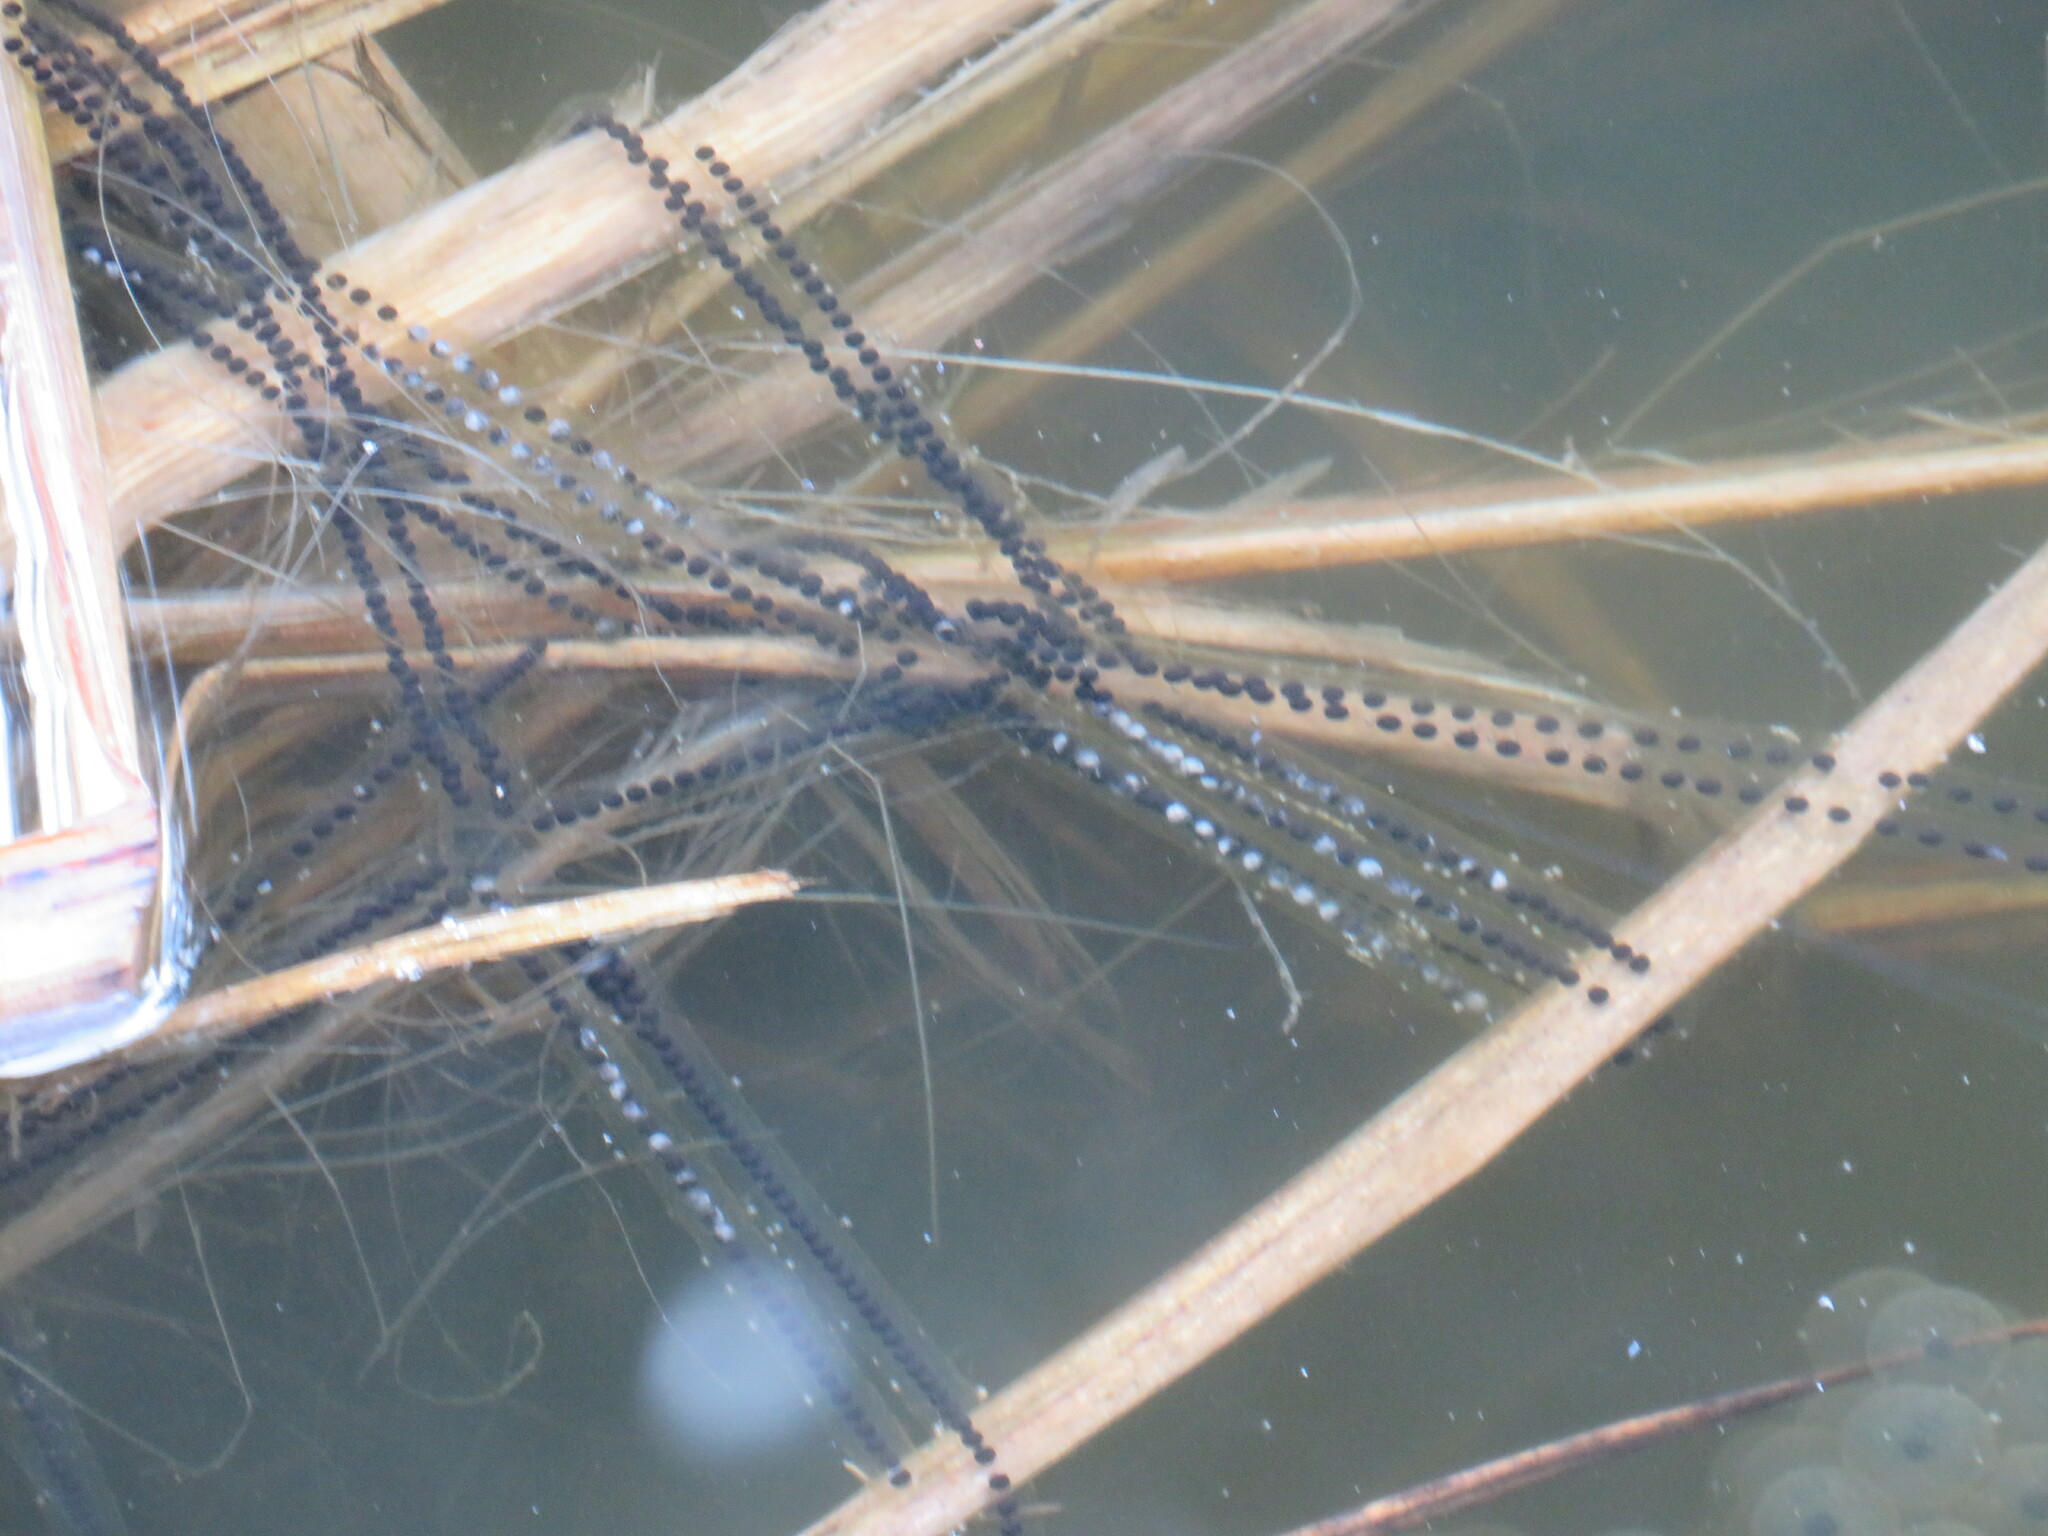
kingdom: Animalia
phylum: Chordata
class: Amphibia
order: Anura
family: Bufonidae
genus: Bufo
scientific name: Bufo bufo
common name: Common toad
